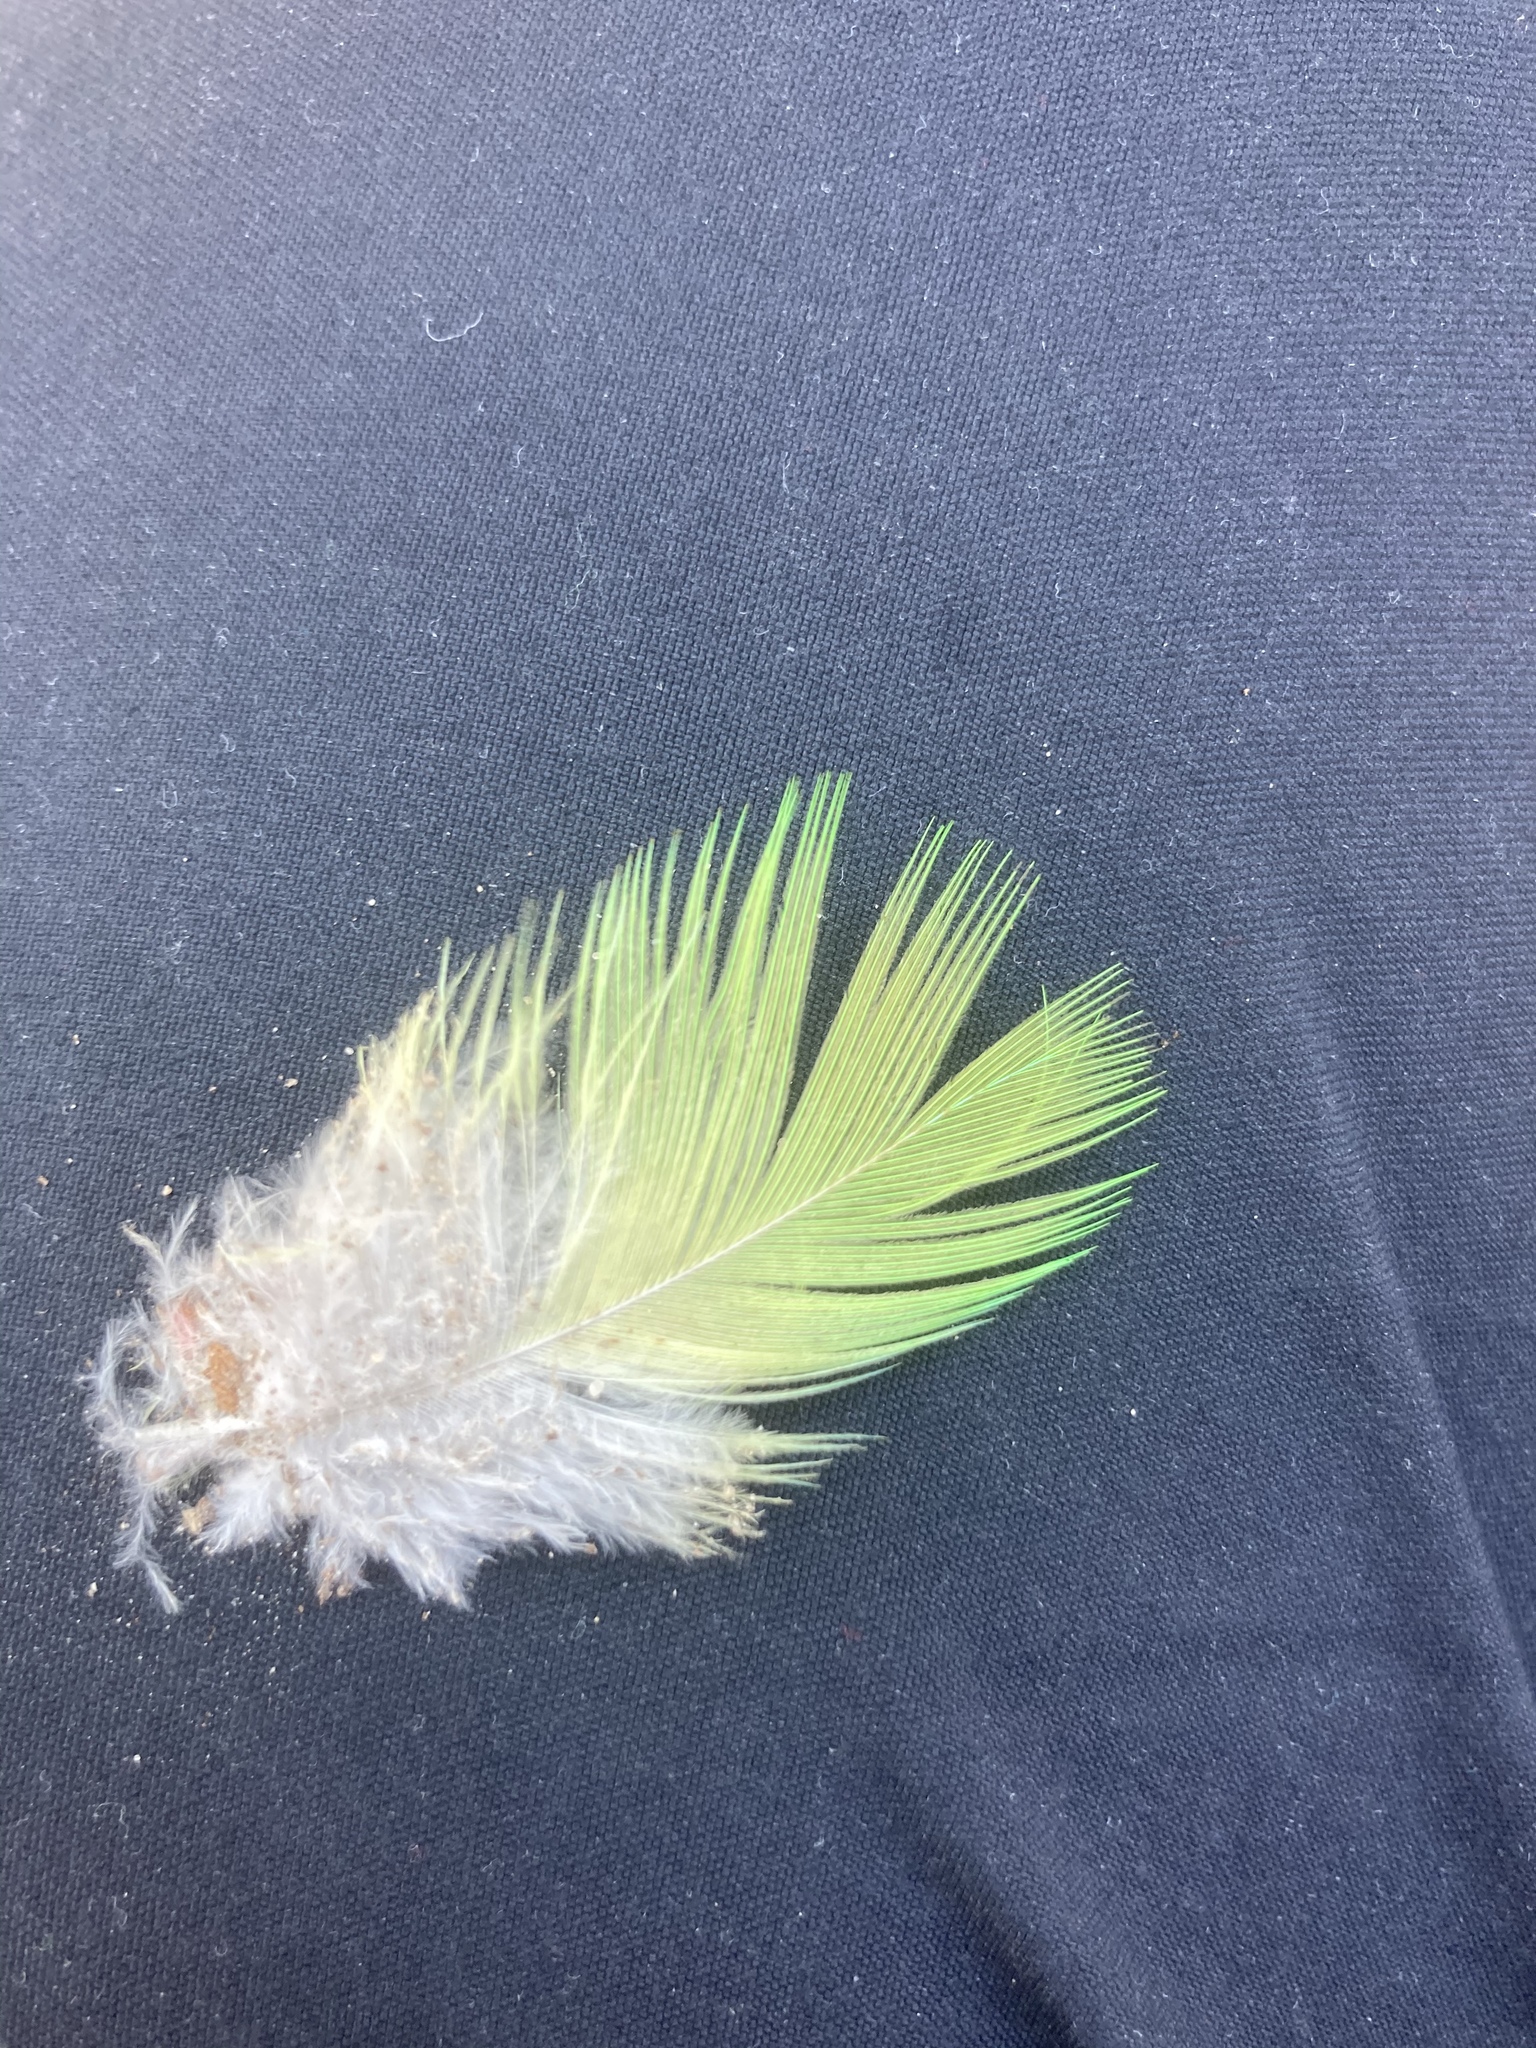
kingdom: Animalia
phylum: Chordata
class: Aves
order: Psittaciformes
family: Psittacidae
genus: Psittacula
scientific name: Psittacula eupatria
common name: Alexandrine parakeet
